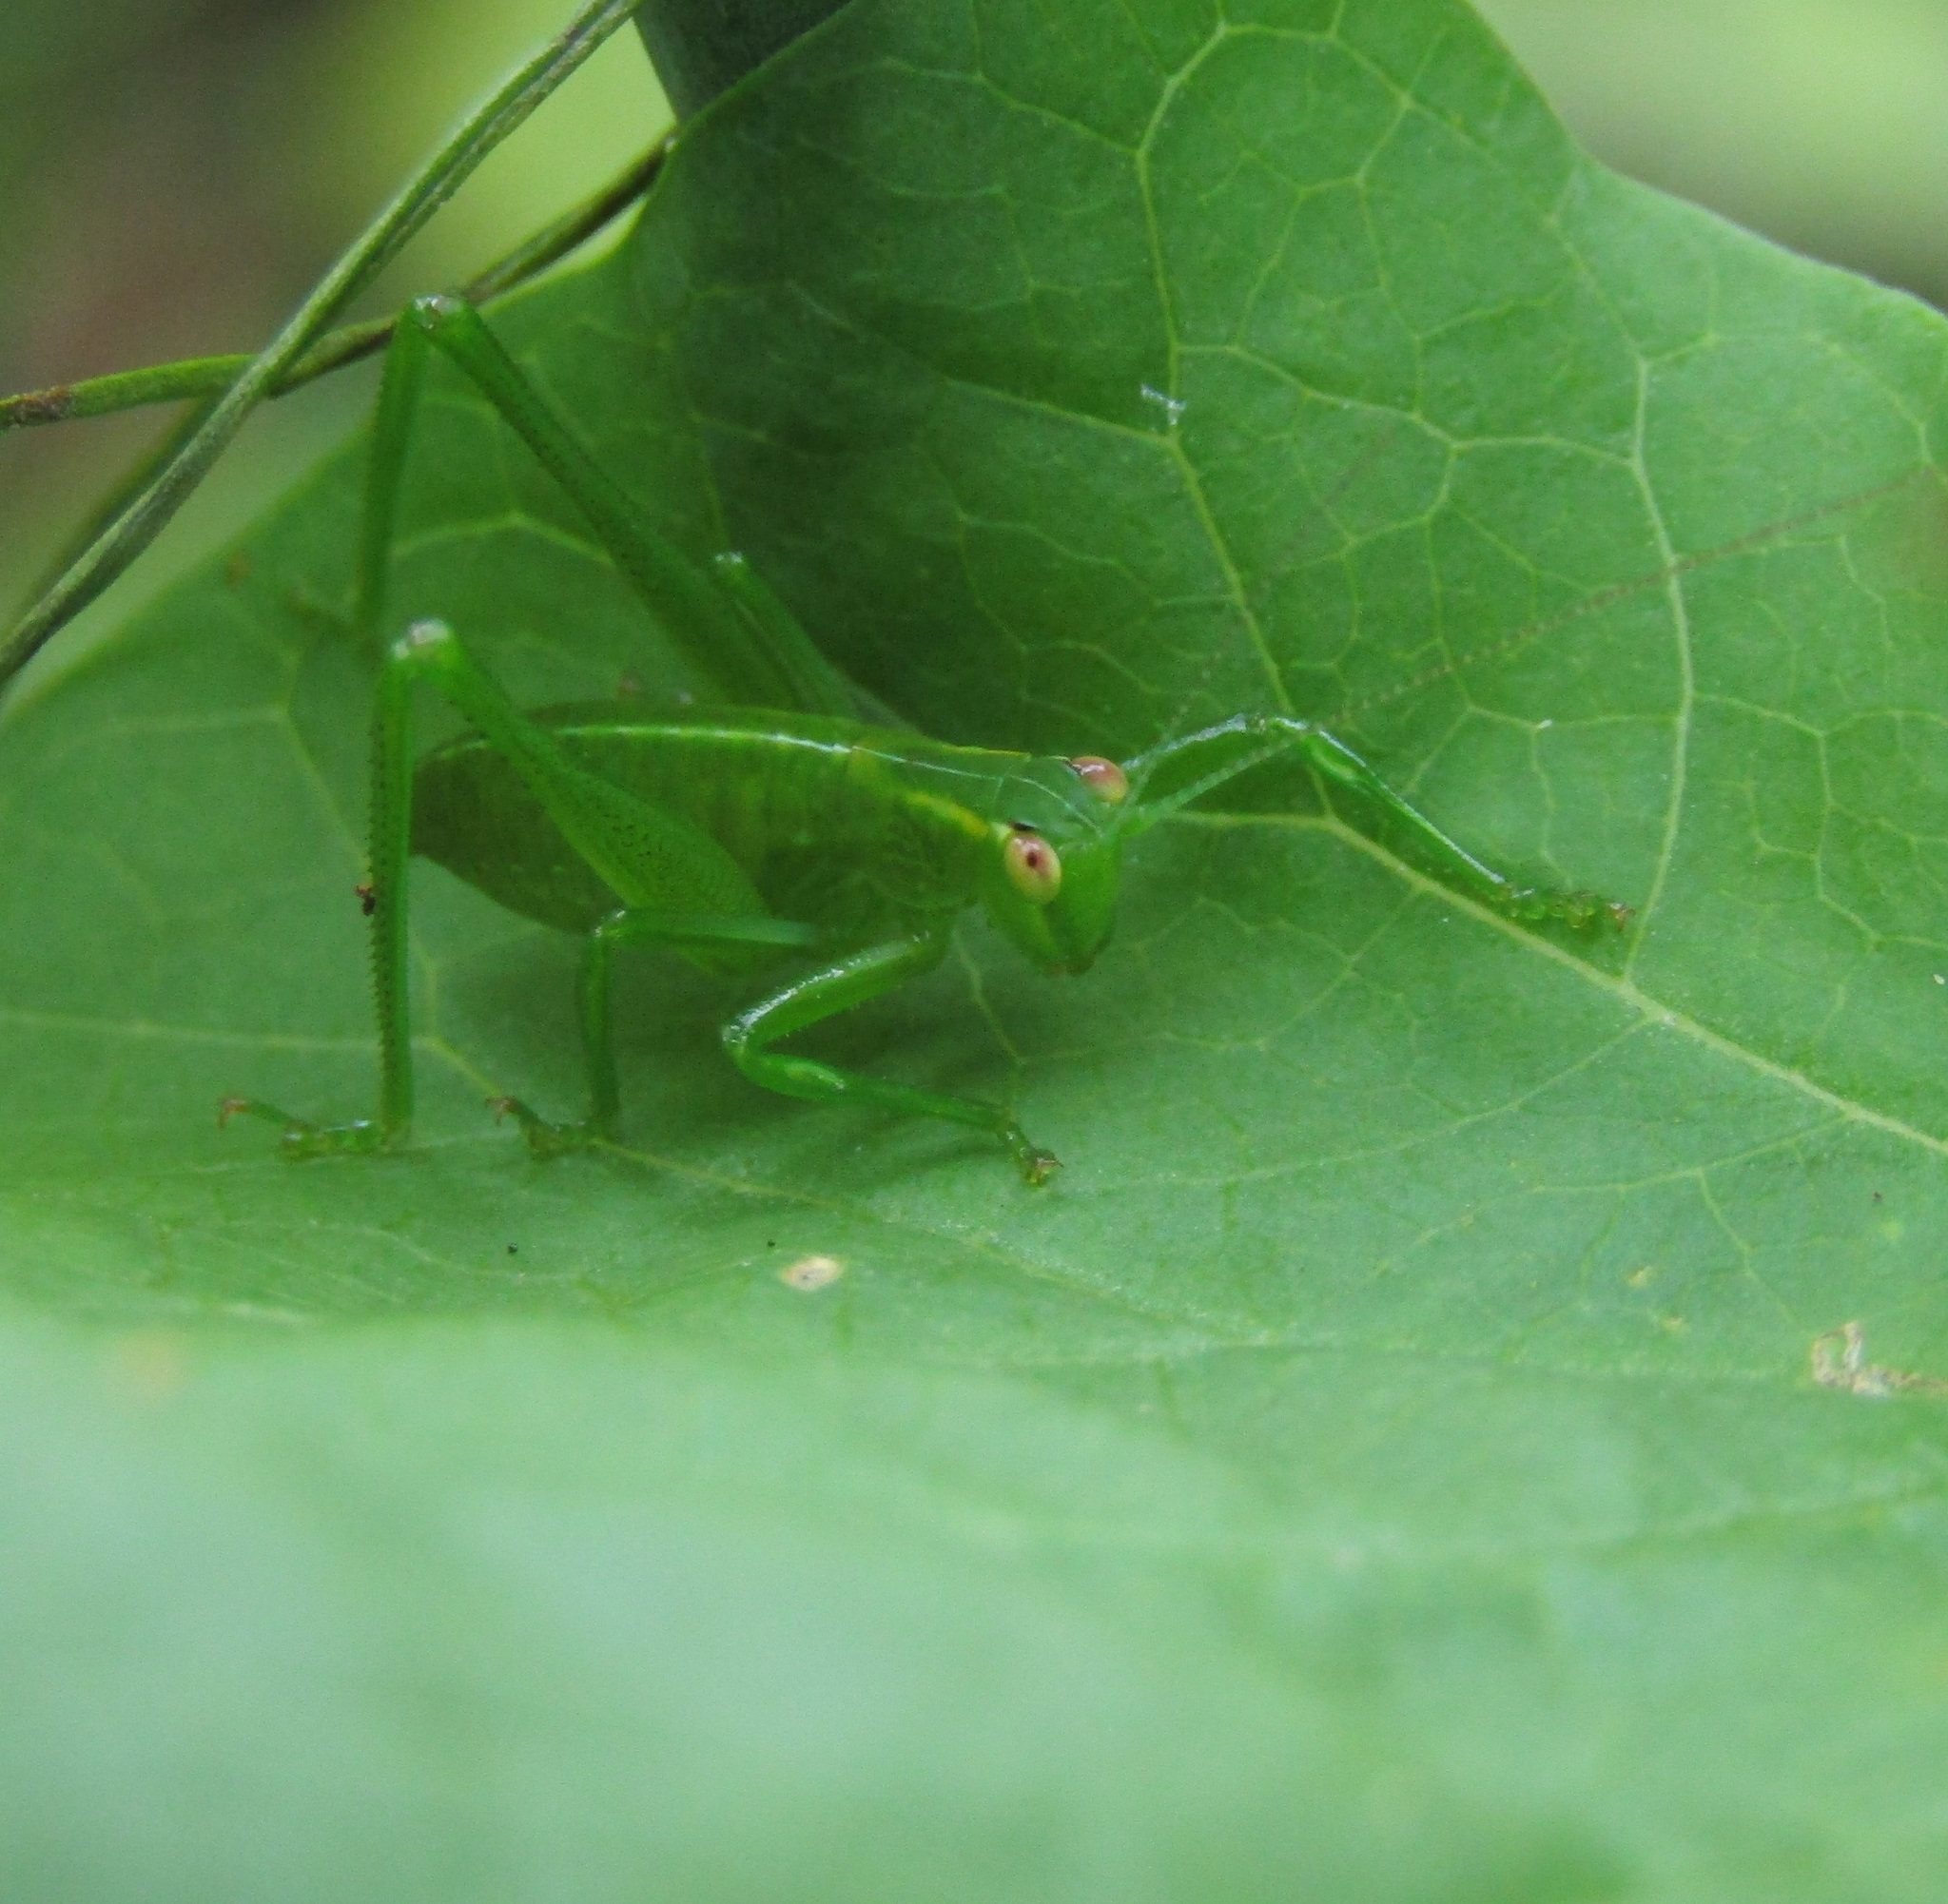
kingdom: Animalia
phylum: Arthropoda
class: Insecta
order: Orthoptera
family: Tettigoniidae
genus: Caedicia
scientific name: Caedicia simplex
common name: Common garden katydid
